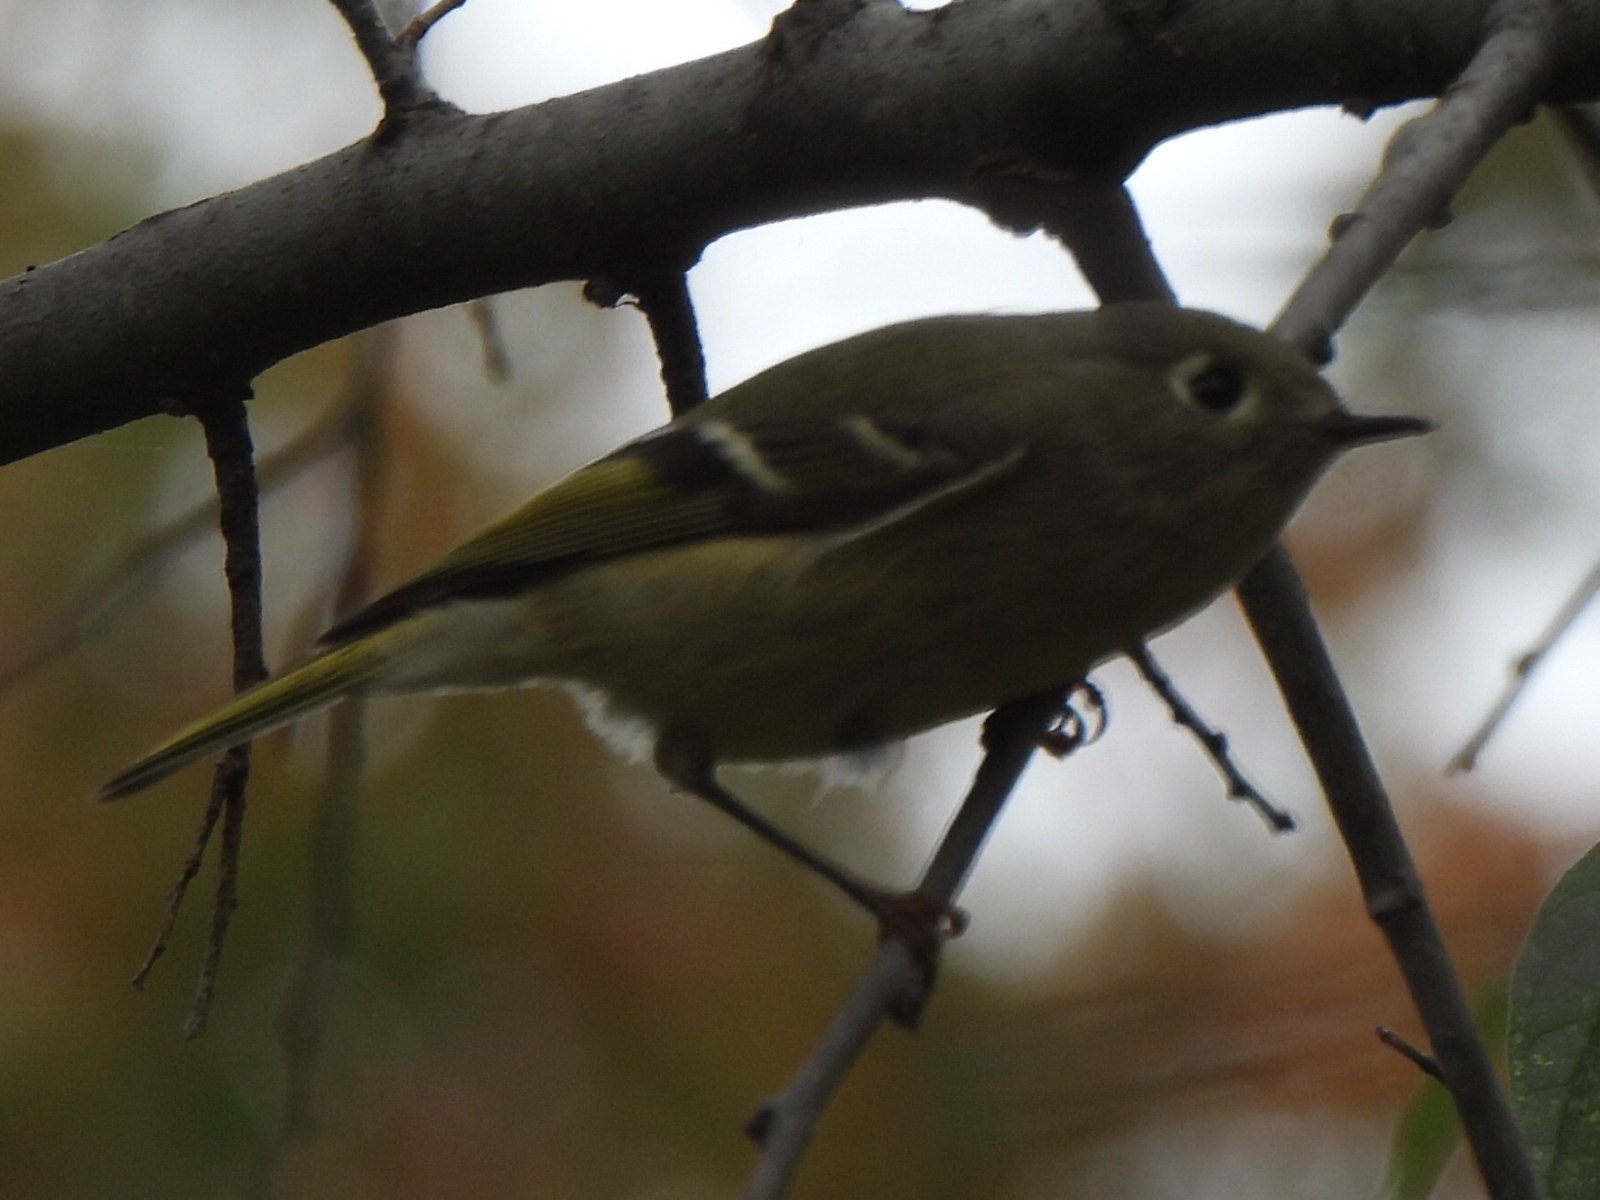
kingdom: Animalia
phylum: Chordata
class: Aves
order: Passeriformes
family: Regulidae
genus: Regulus
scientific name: Regulus calendula
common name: Ruby-crowned kinglet
